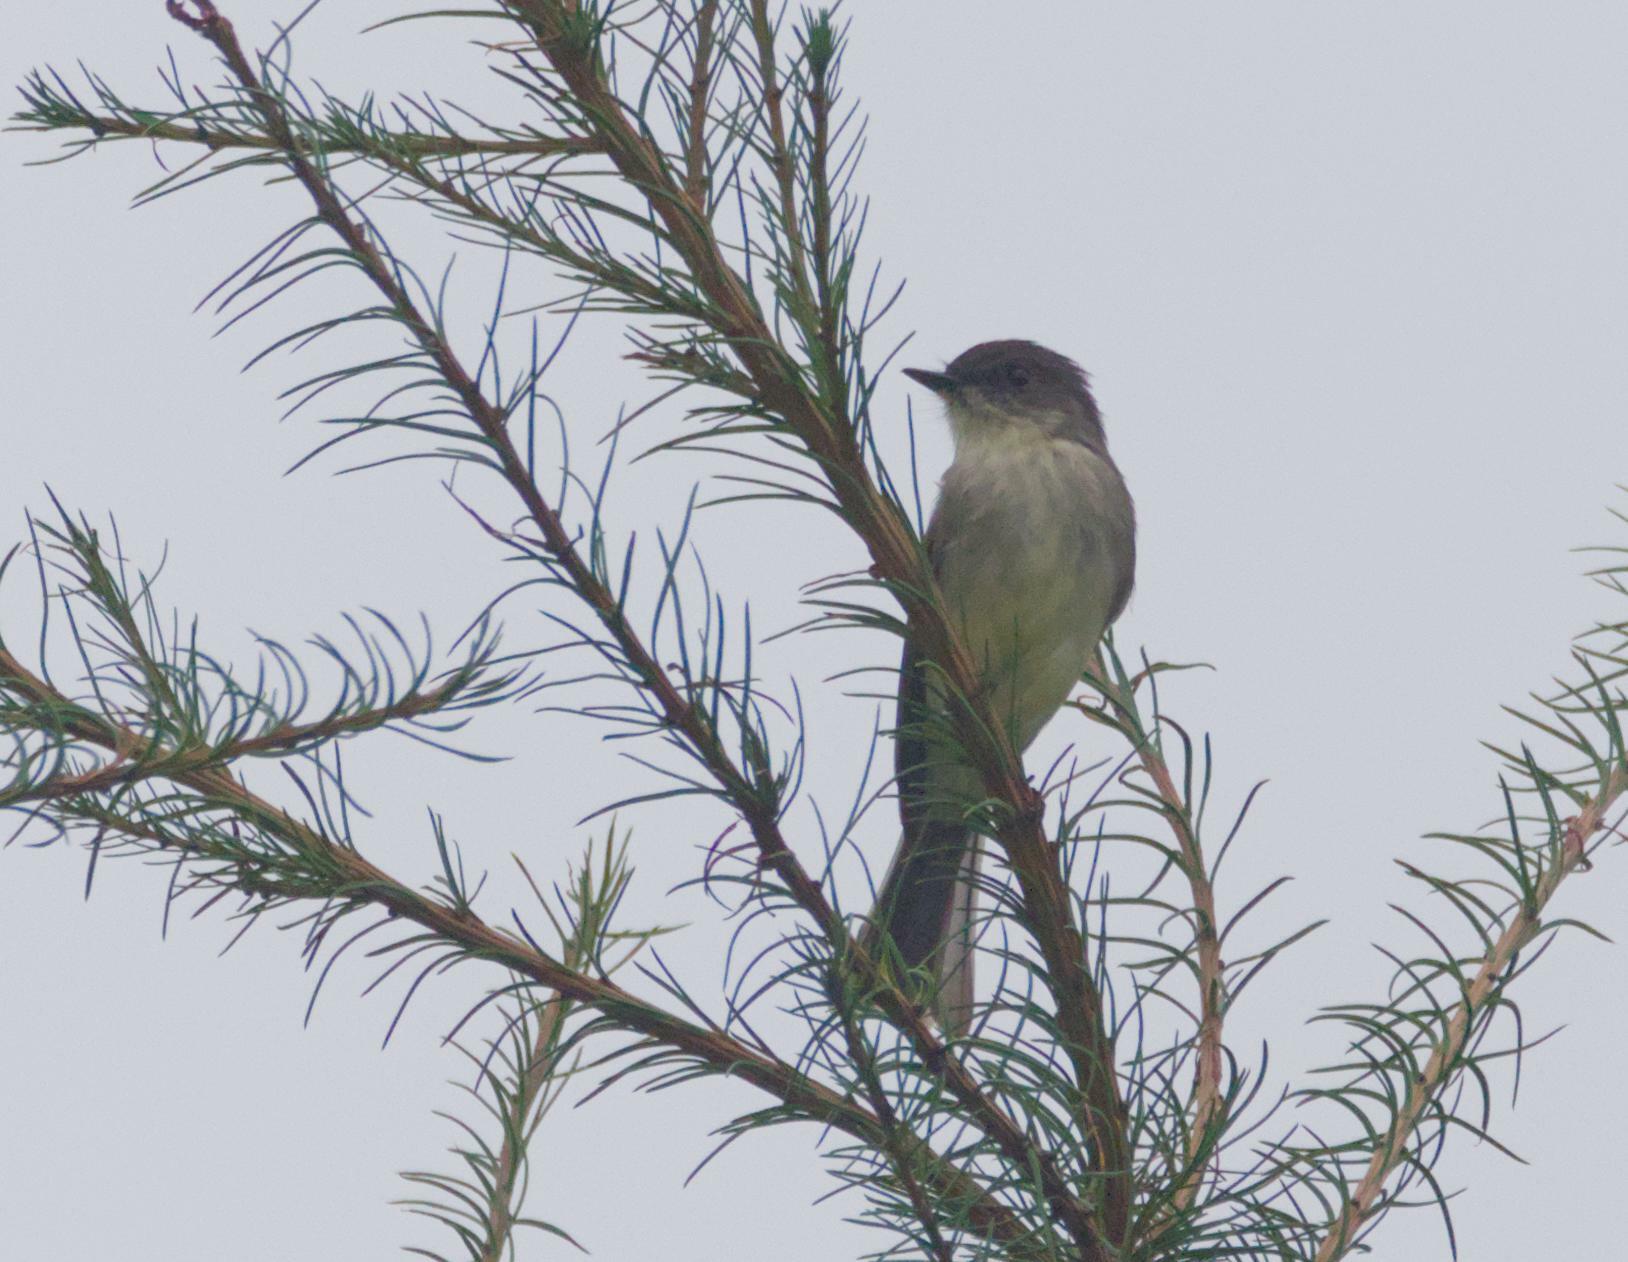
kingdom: Animalia
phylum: Chordata
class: Aves
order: Passeriformes
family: Tyrannidae
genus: Sayornis
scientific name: Sayornis phoebe
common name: Eastern phoebe
